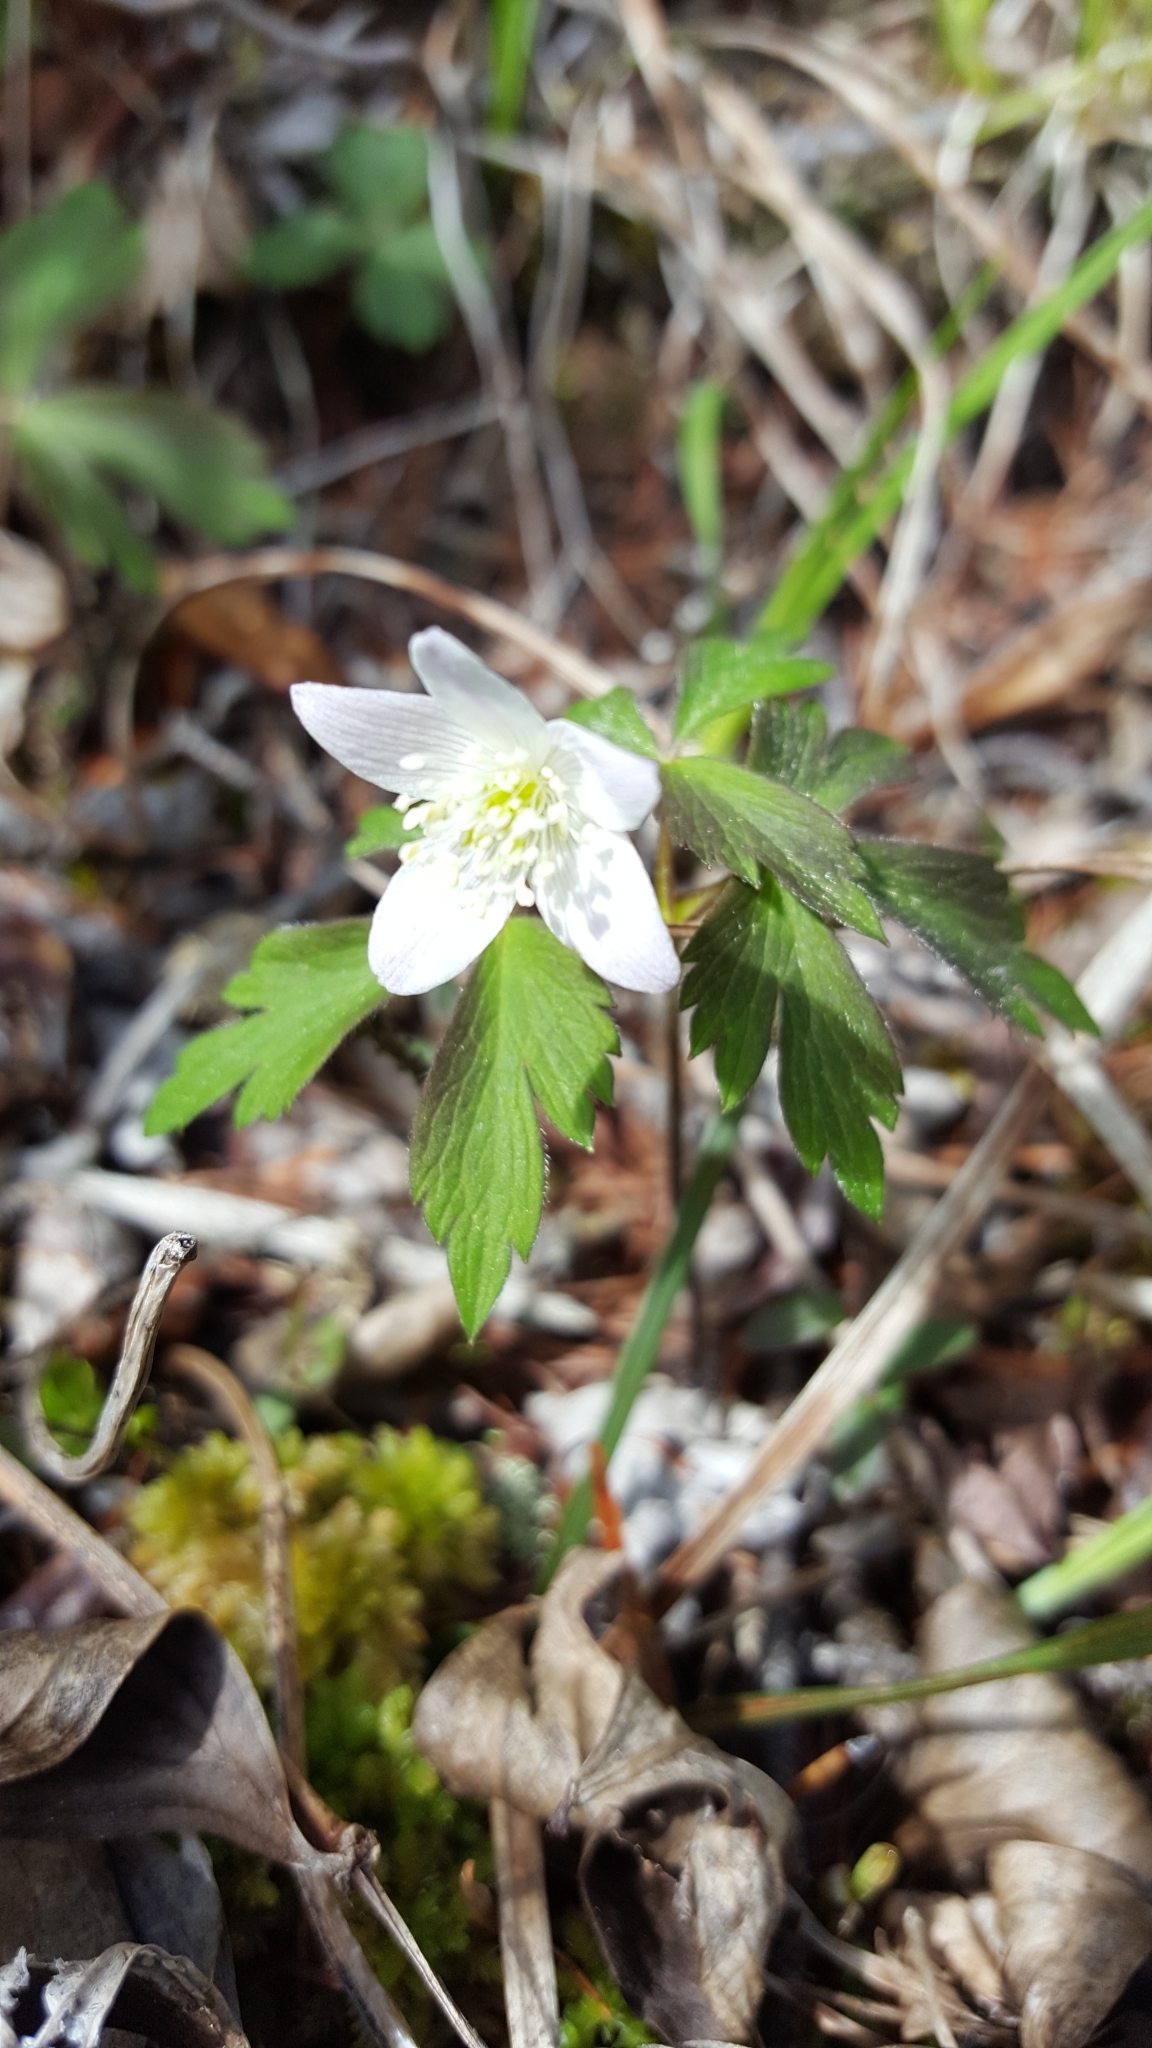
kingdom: Plantae
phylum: Tracheophyta
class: Magnoliopsida
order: Ranunculales
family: Ranunculaceae
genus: Anemone
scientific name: Anemone quinquefolia
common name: Wood anemone
